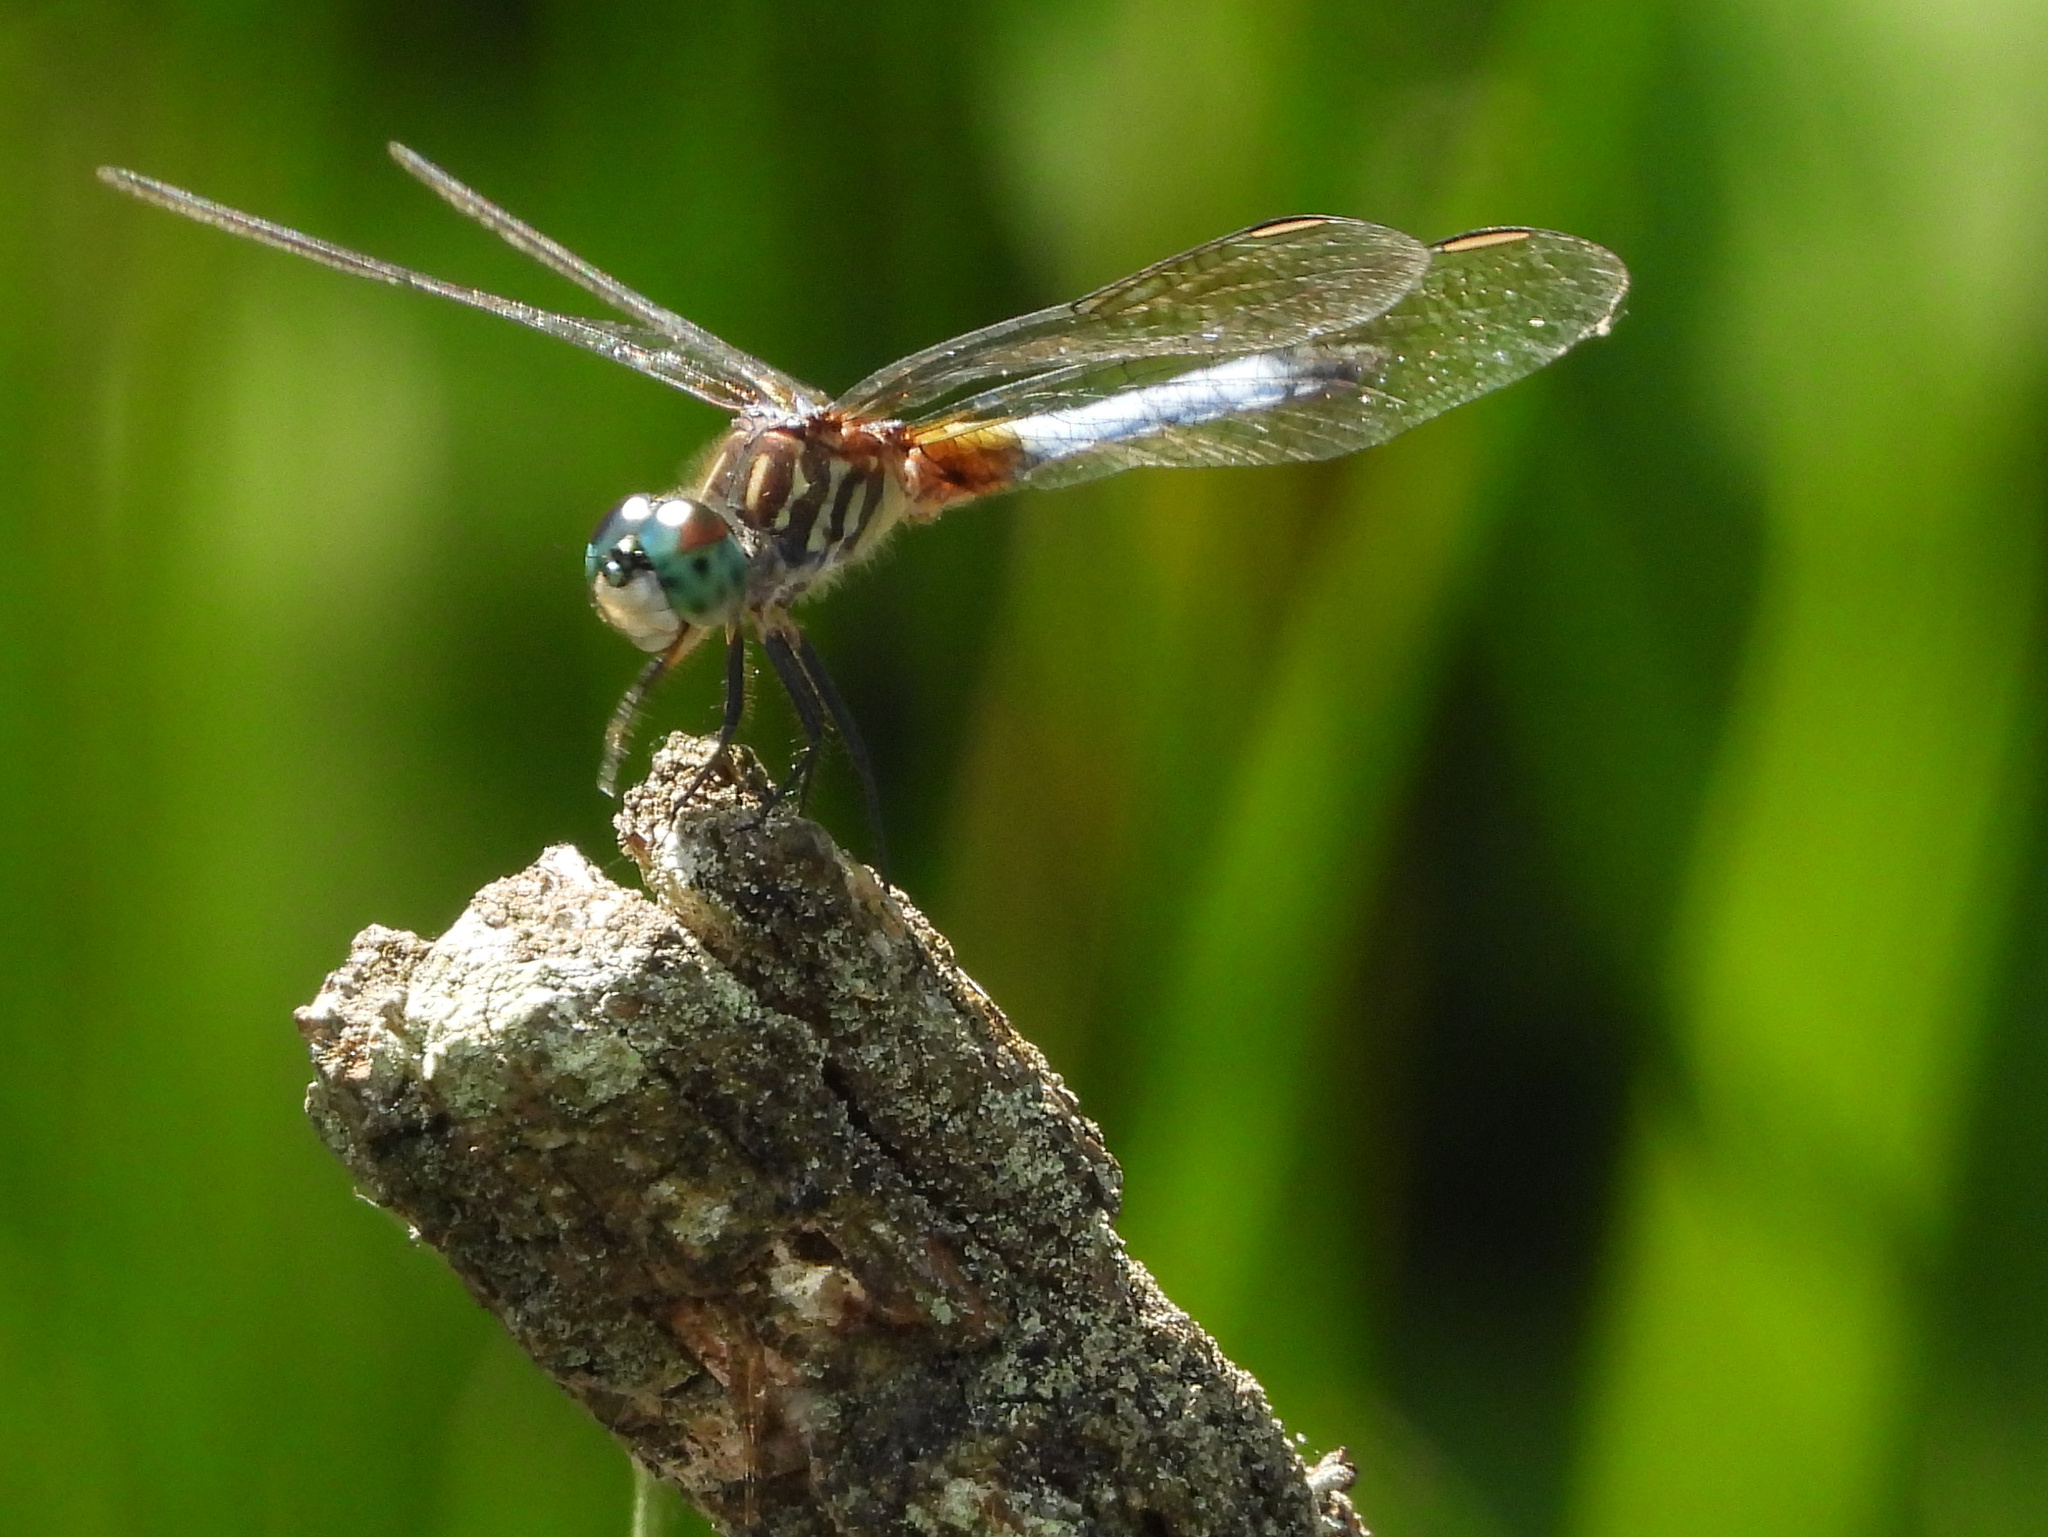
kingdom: Animalia
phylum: Arthropoda
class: Insecta
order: Odonata
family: Libellulidae
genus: Pachydiplax
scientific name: Pachydiplax longipennis
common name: Blue dasher
